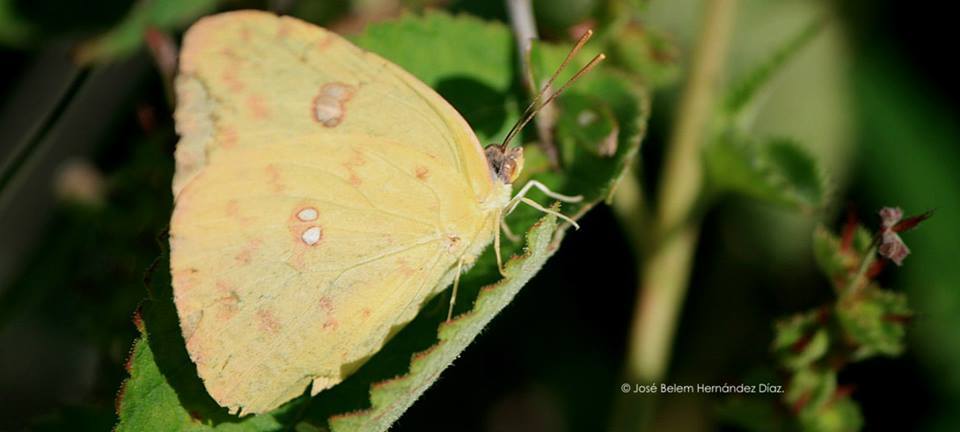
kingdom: Animalia
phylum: Arthropoda
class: Insecta
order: Lepidoptera
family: Pieridae
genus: Phoebis
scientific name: Phoebis sennae
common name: Cloudless sulphur
